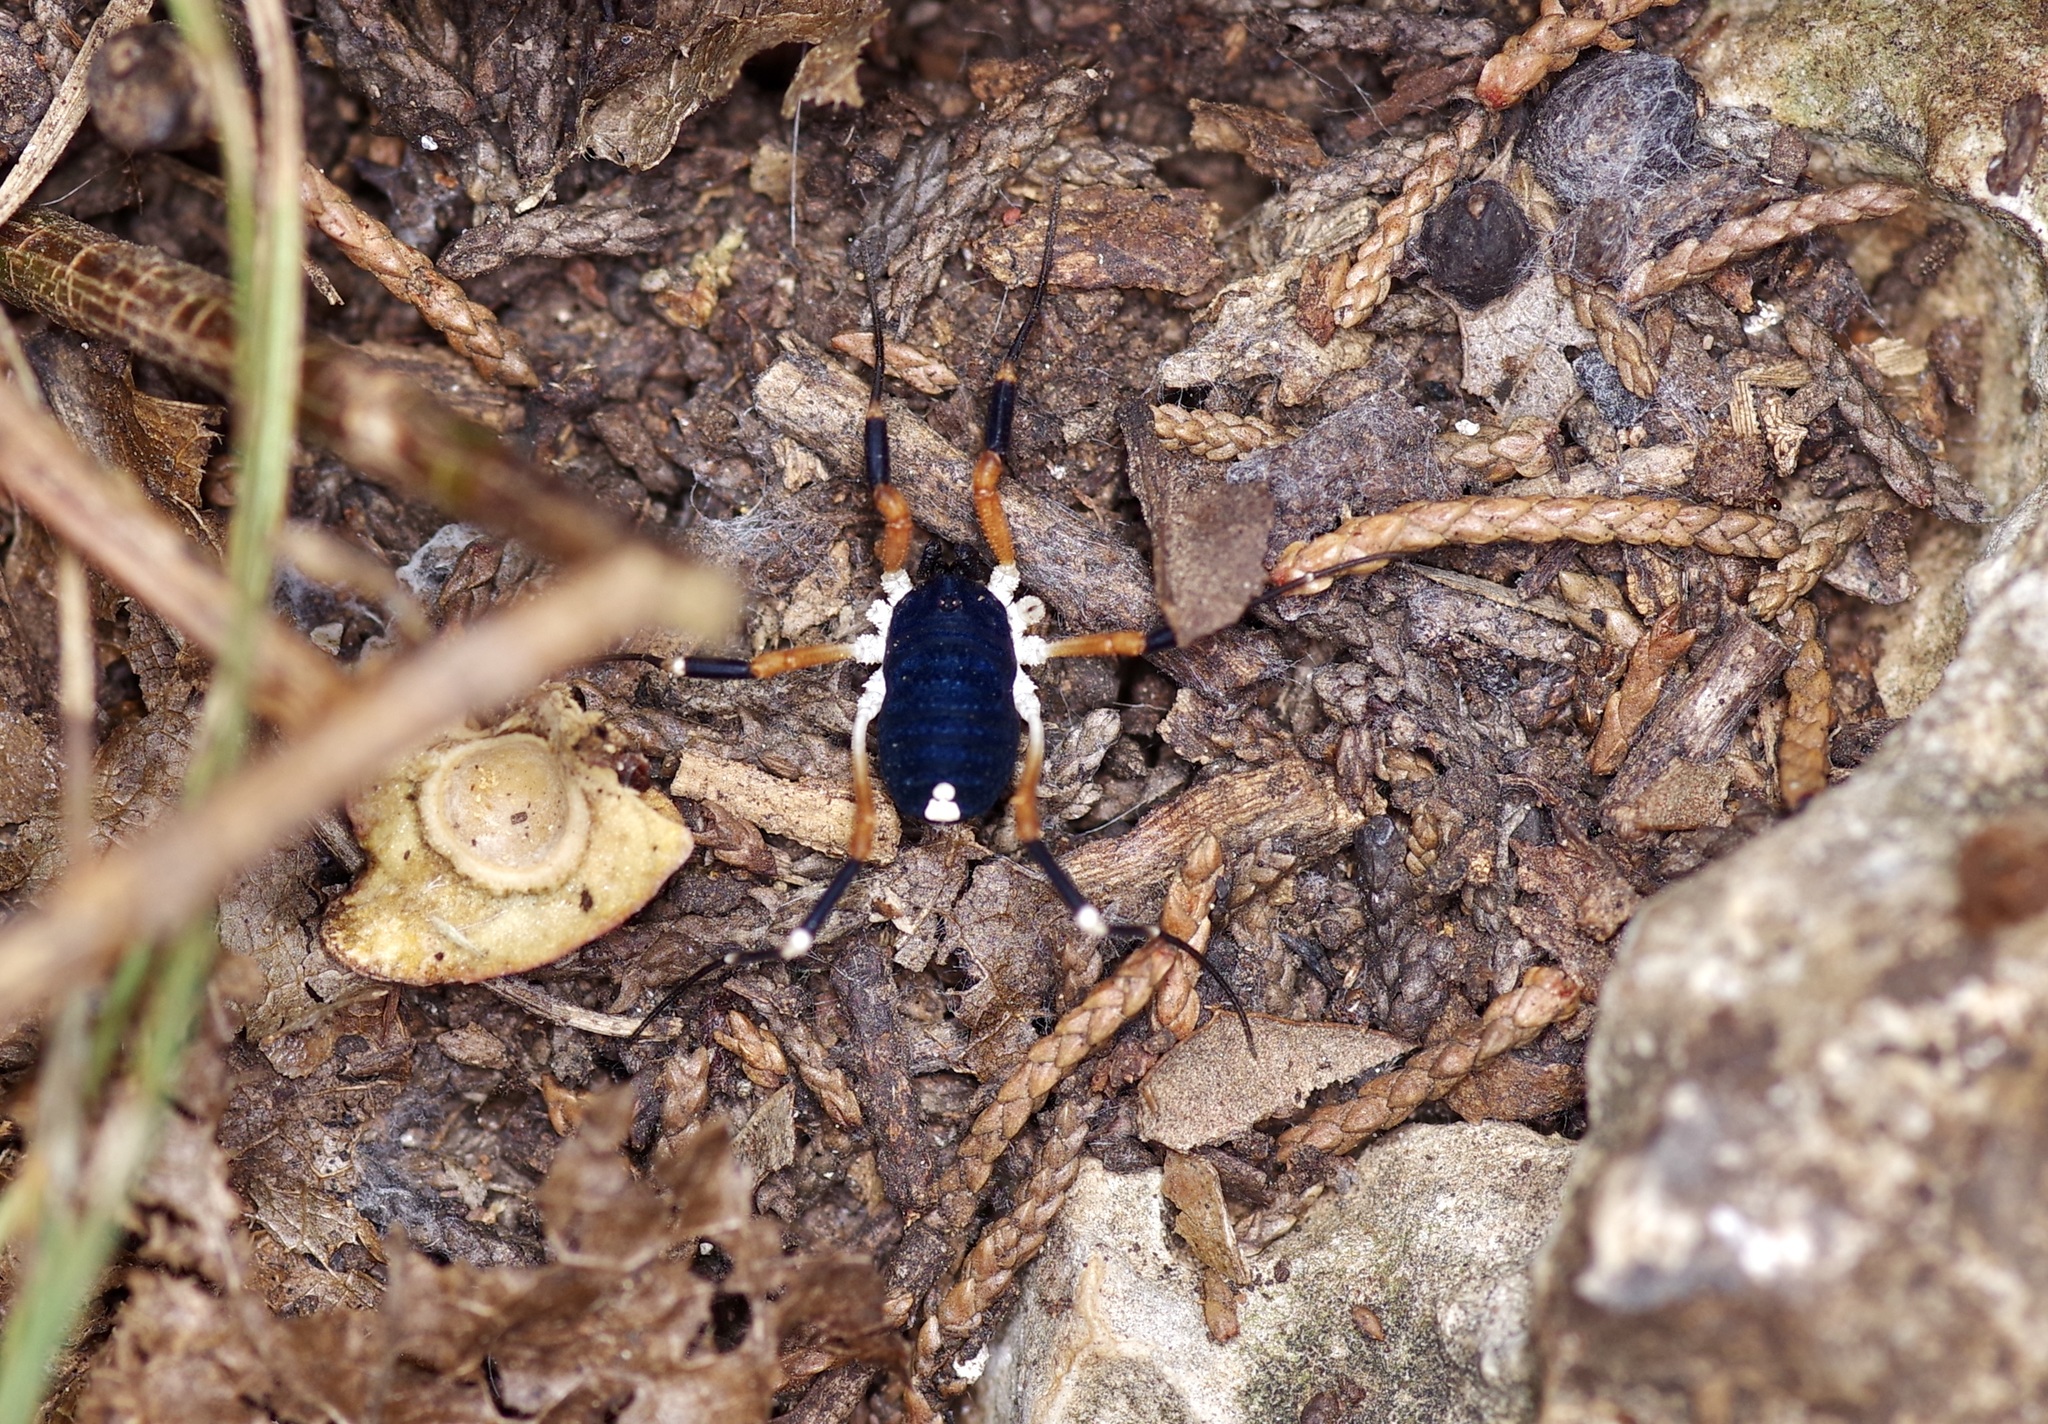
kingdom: Animalia
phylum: Arthropoda
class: Arachnida
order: Opiliones
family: Globipedidae
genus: Dalquestia
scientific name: Dalquestia formosa
